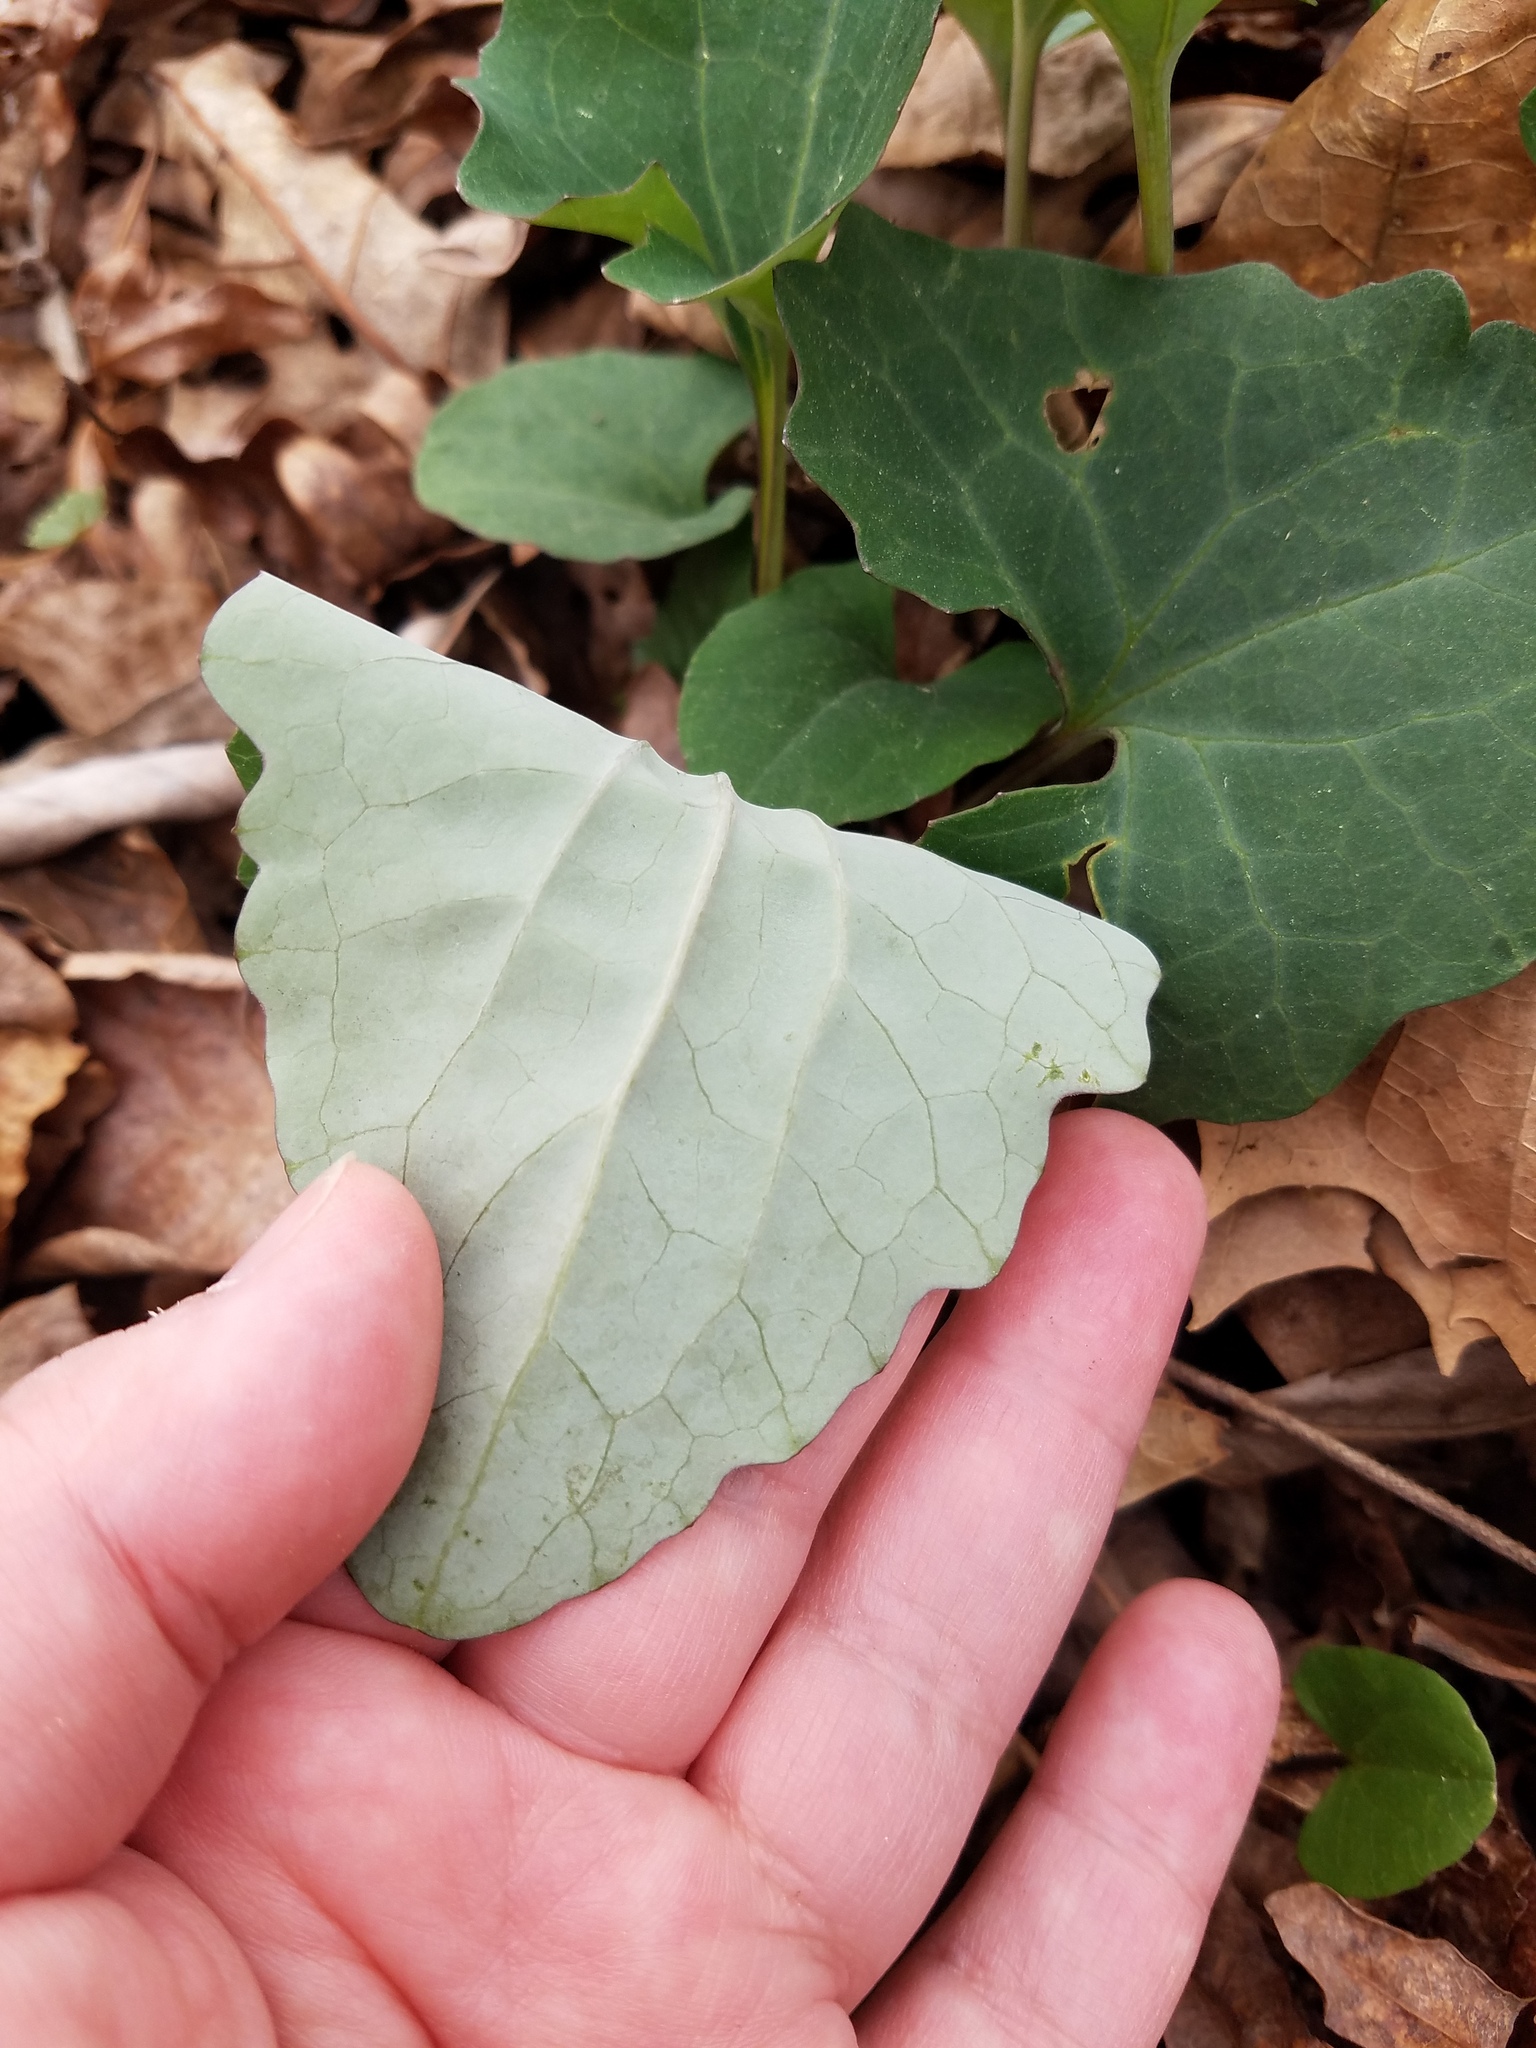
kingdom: Plantae
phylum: Tracheophyta
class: Magnoliopsida
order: Asterales
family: Asteraceae
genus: Arnoglossum
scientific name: Arnoglossum atriplicifolium
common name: Pale indian-plantain
